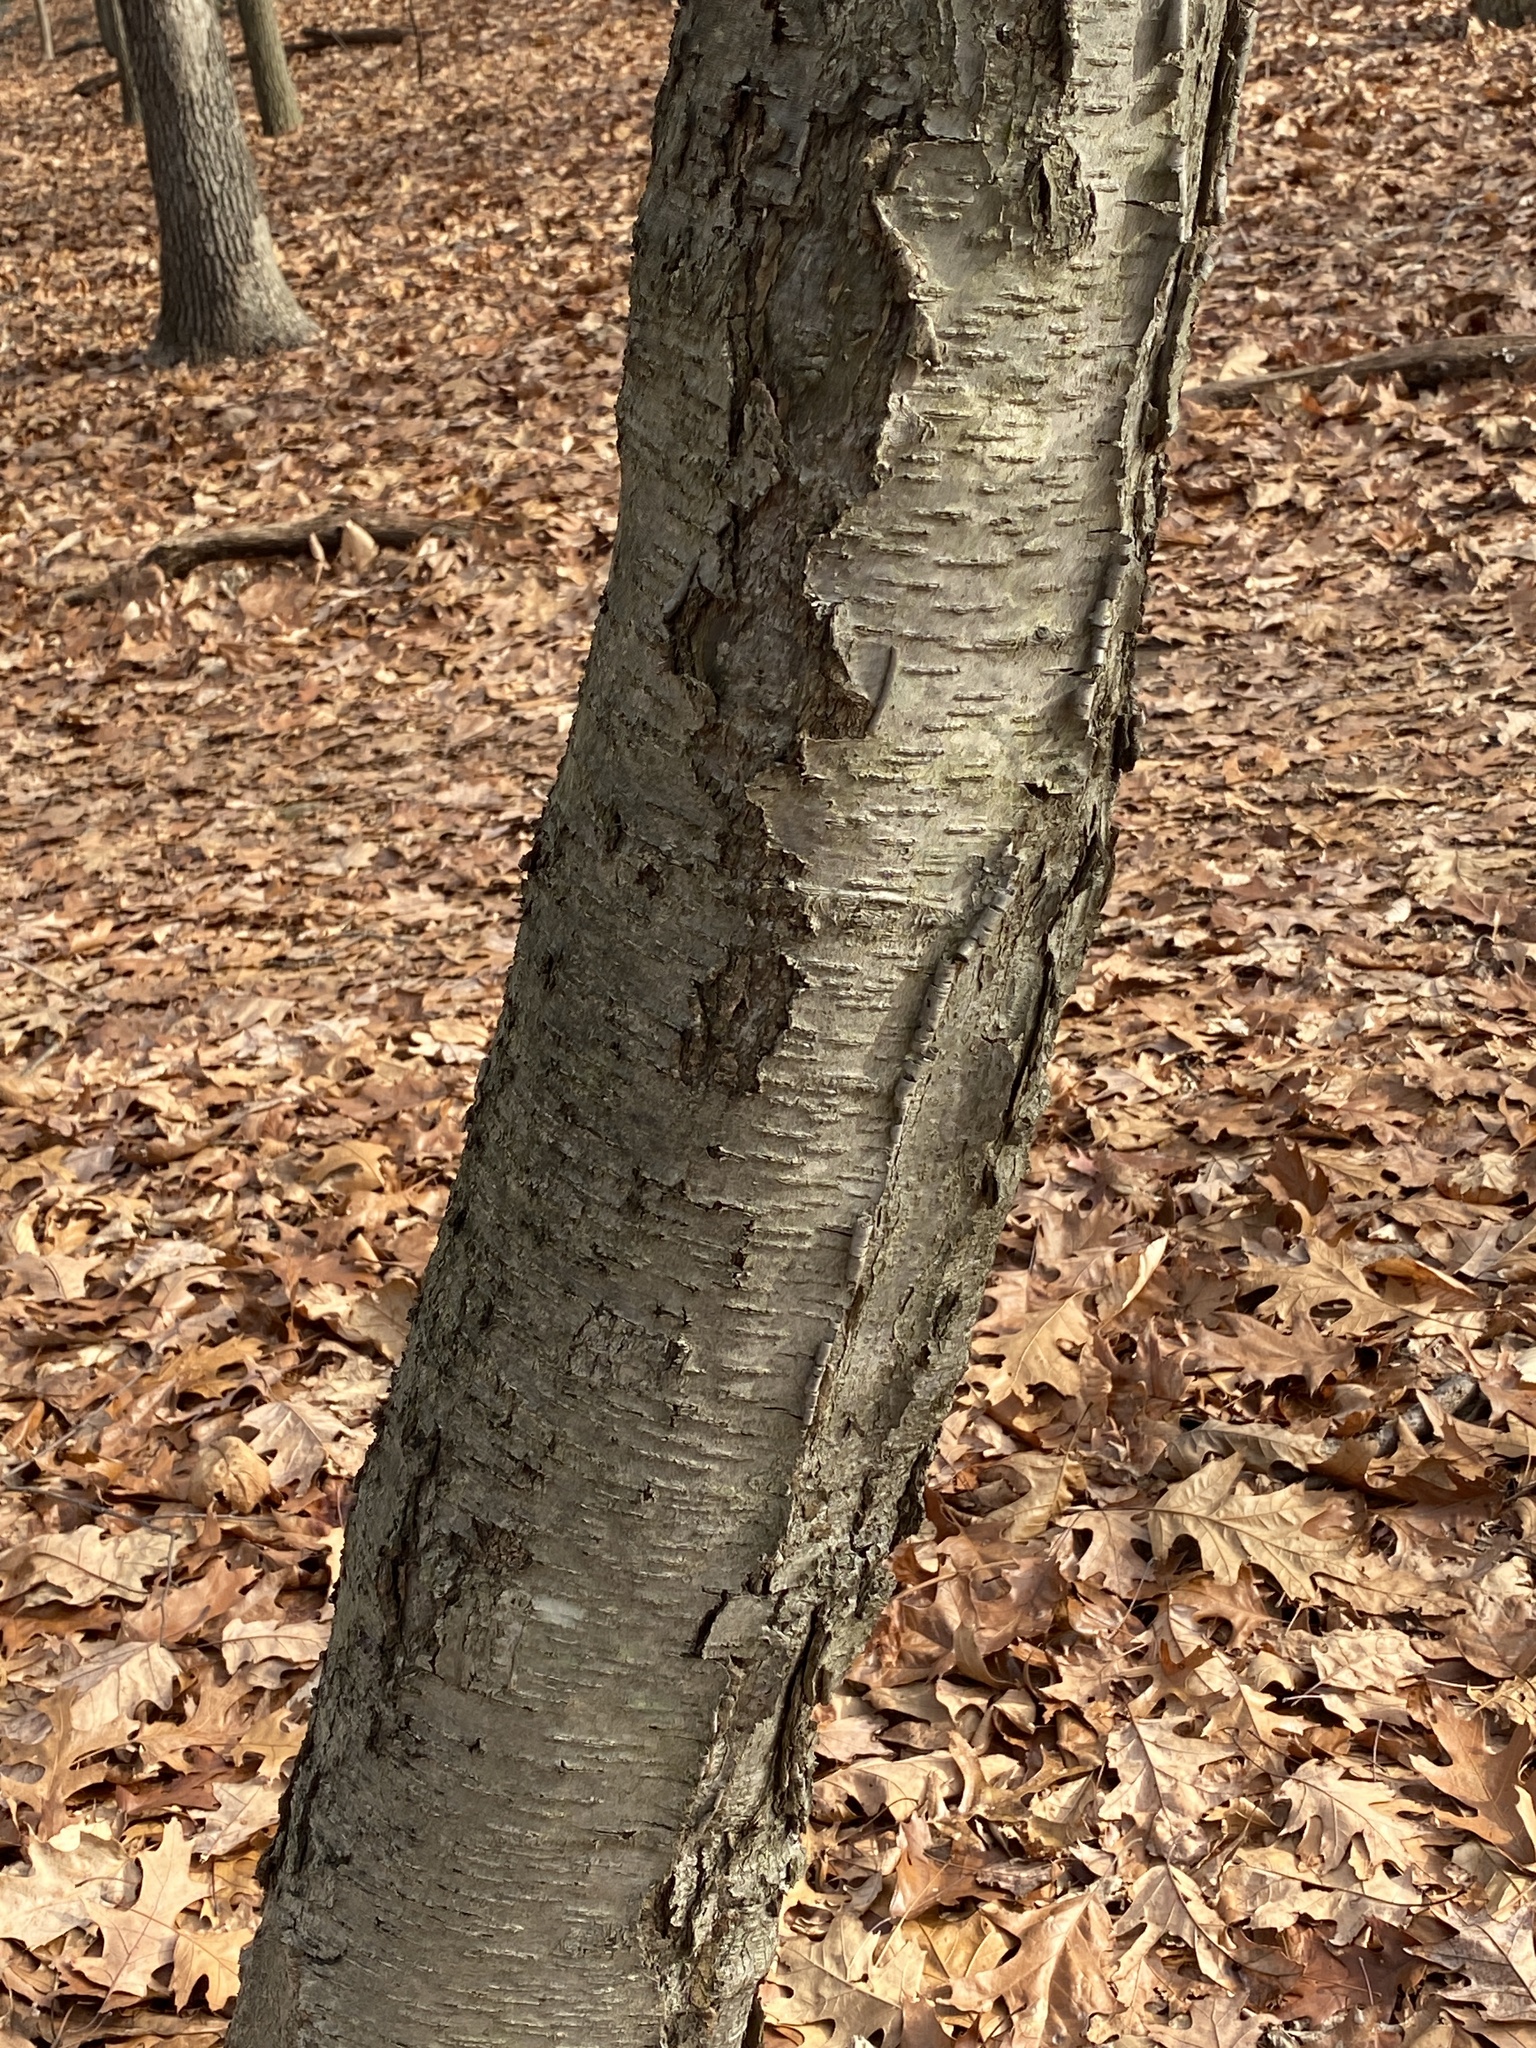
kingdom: Plantae
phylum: Tracheophyta
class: Magnoliopsida
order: Fagales
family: Betulaceae
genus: Betula
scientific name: Betula lenta
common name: Black birch
